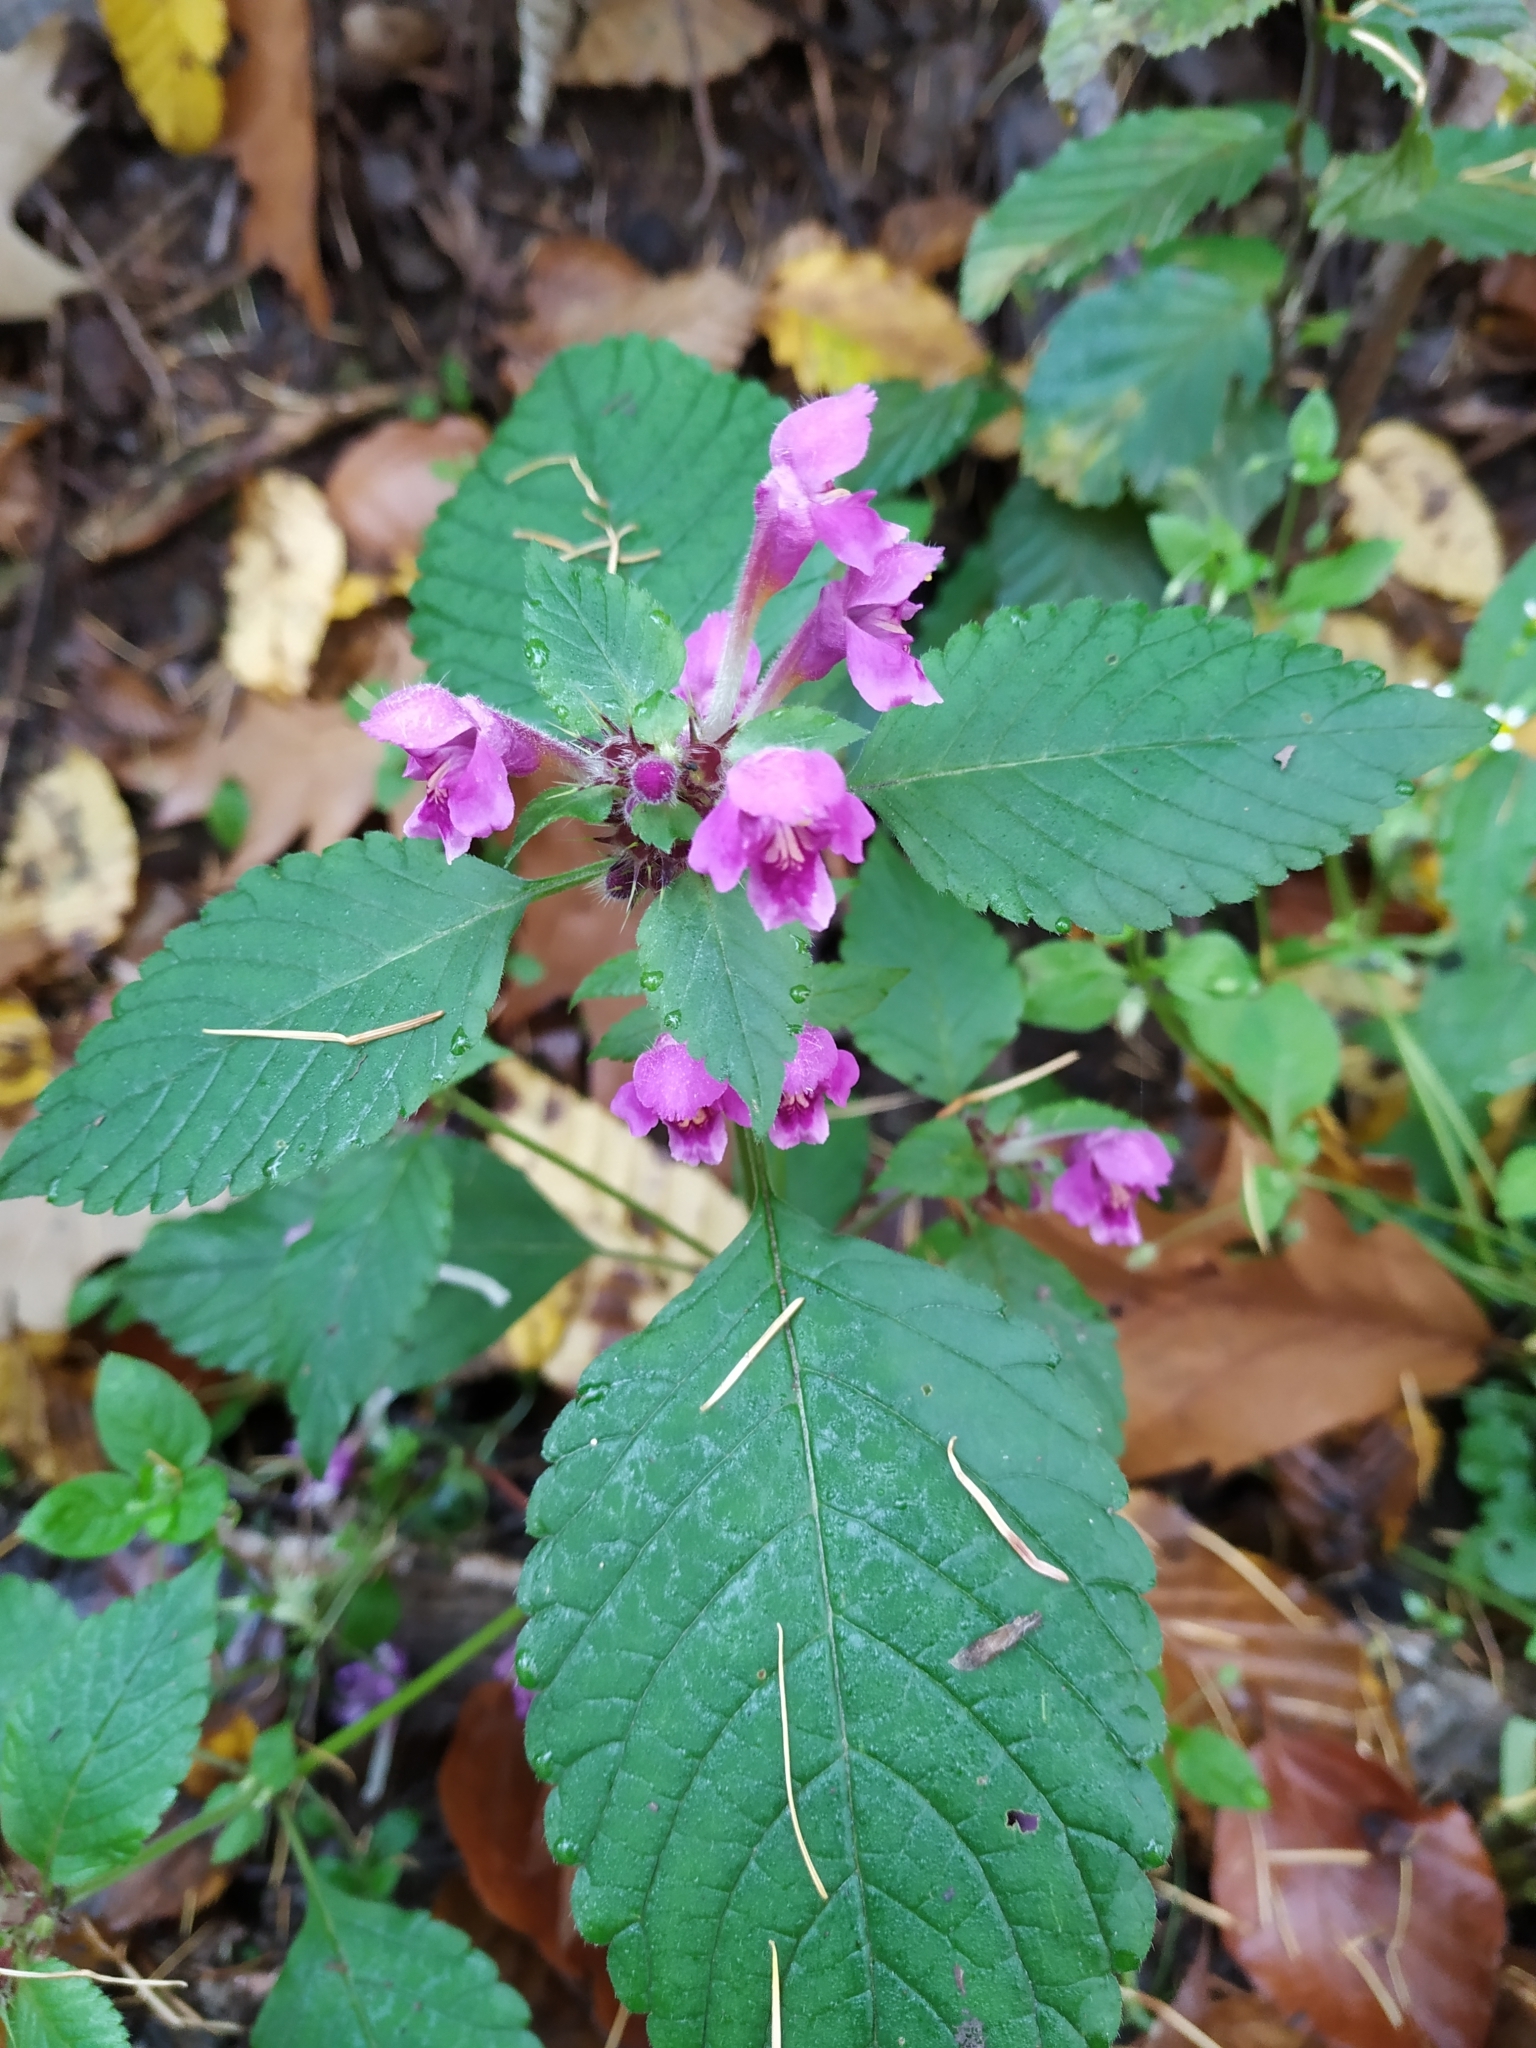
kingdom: Plantae
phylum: Tracheophyta
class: Magnoliopsida
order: Lamiales
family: Lamiaceae
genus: Galeopsis
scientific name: Galeopsis pubescens
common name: Downy hemp-nettle
